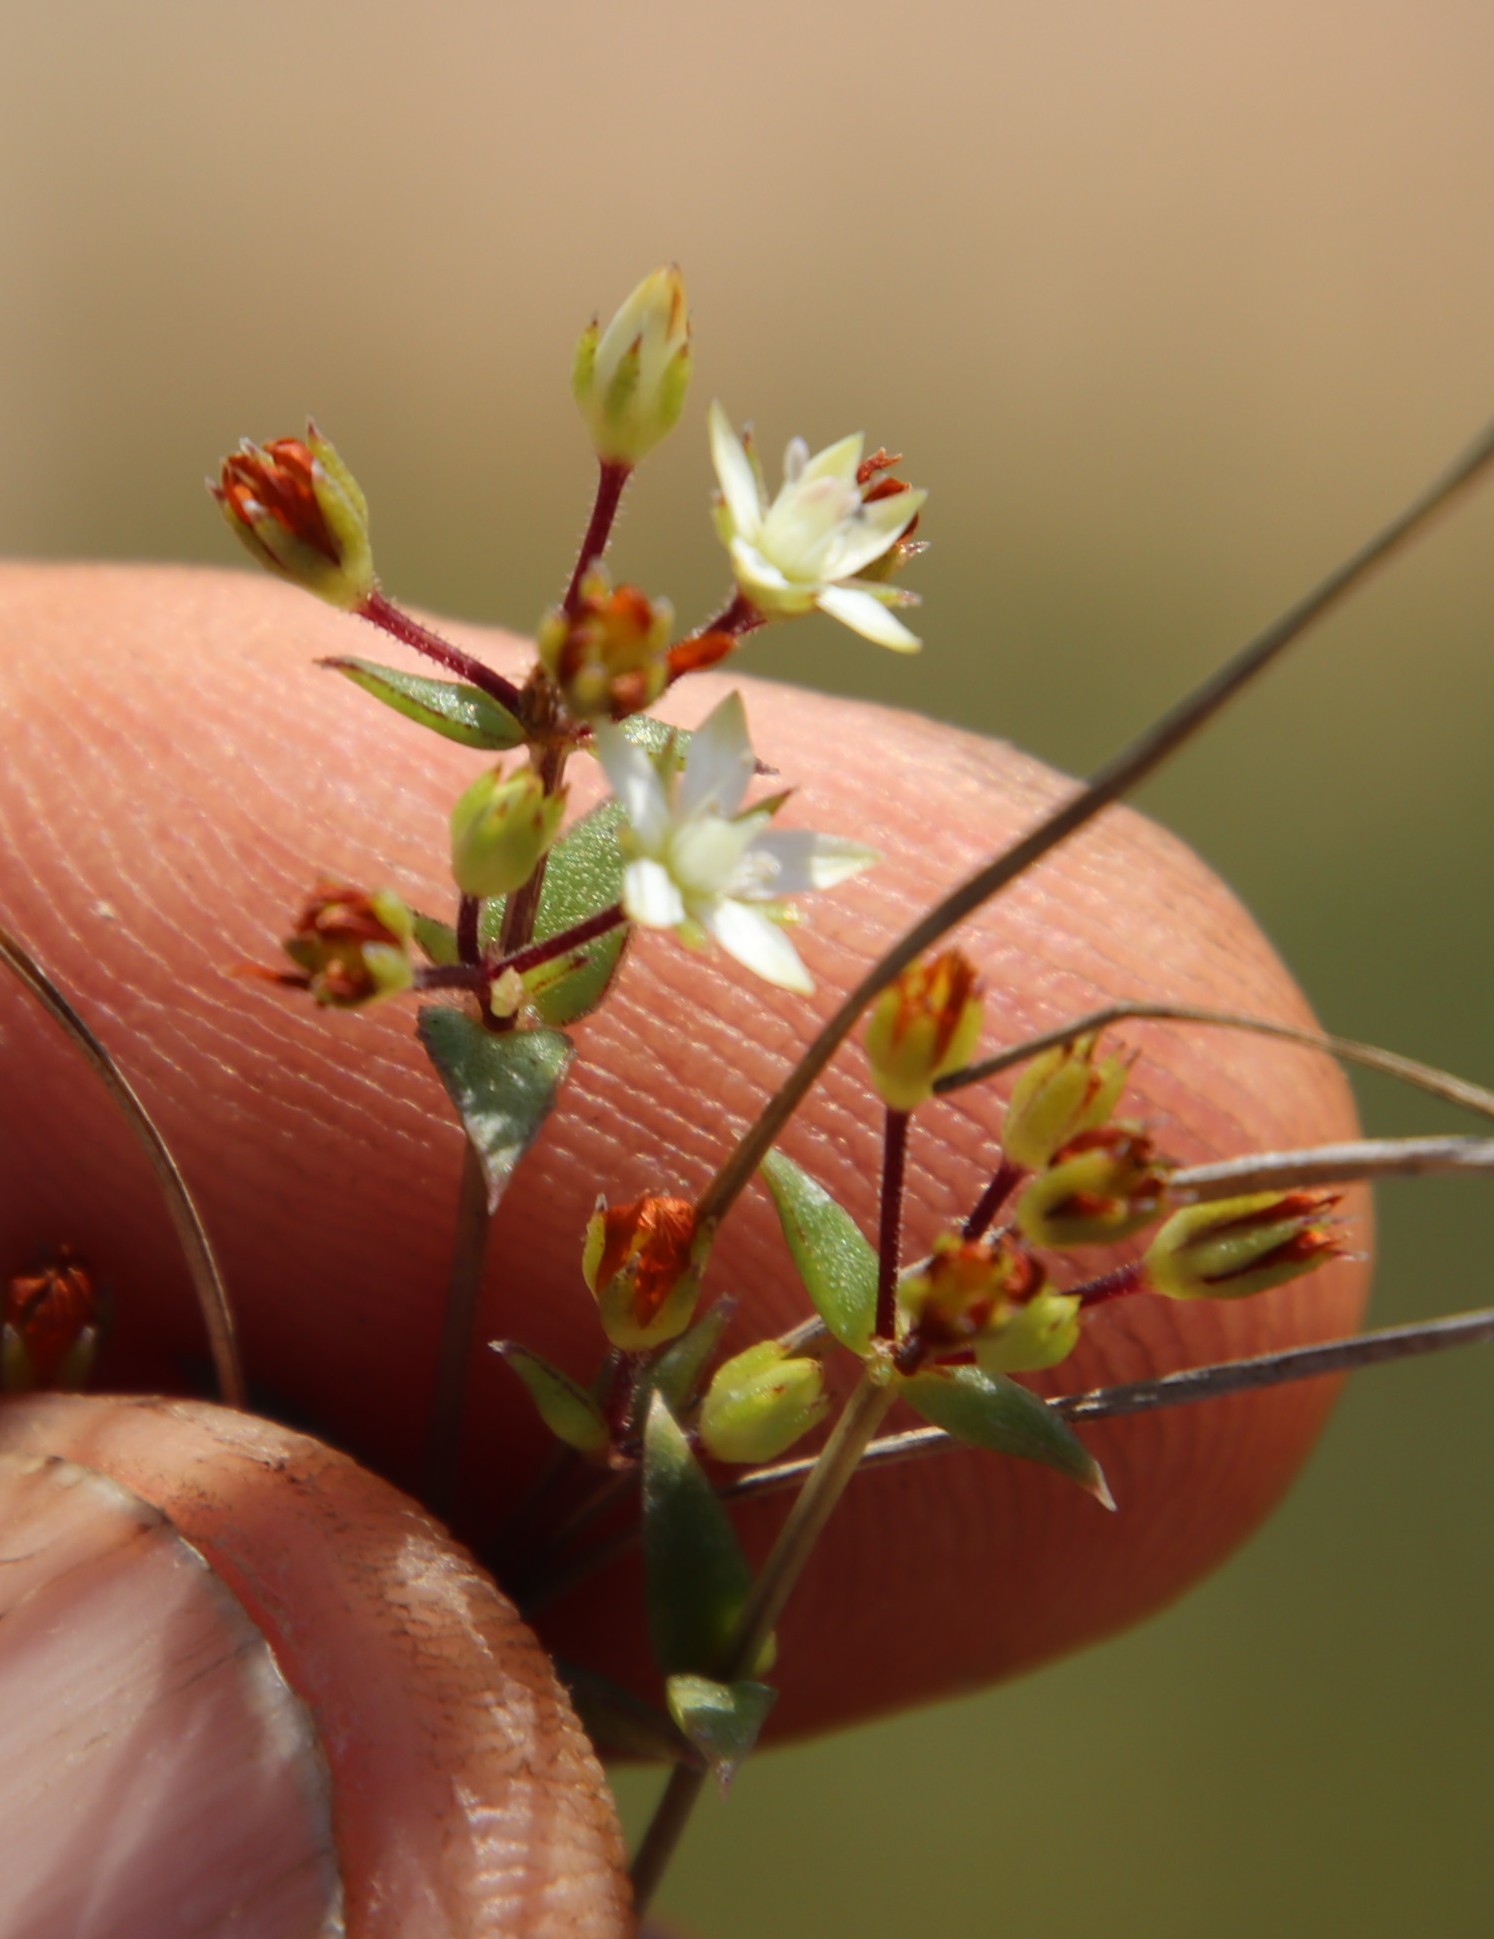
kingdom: Plantae
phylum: Tracheophyta
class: Magnoliopsida
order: Saxifragales
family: Crassulaceae
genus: Crassula
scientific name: Crassula pellucida
